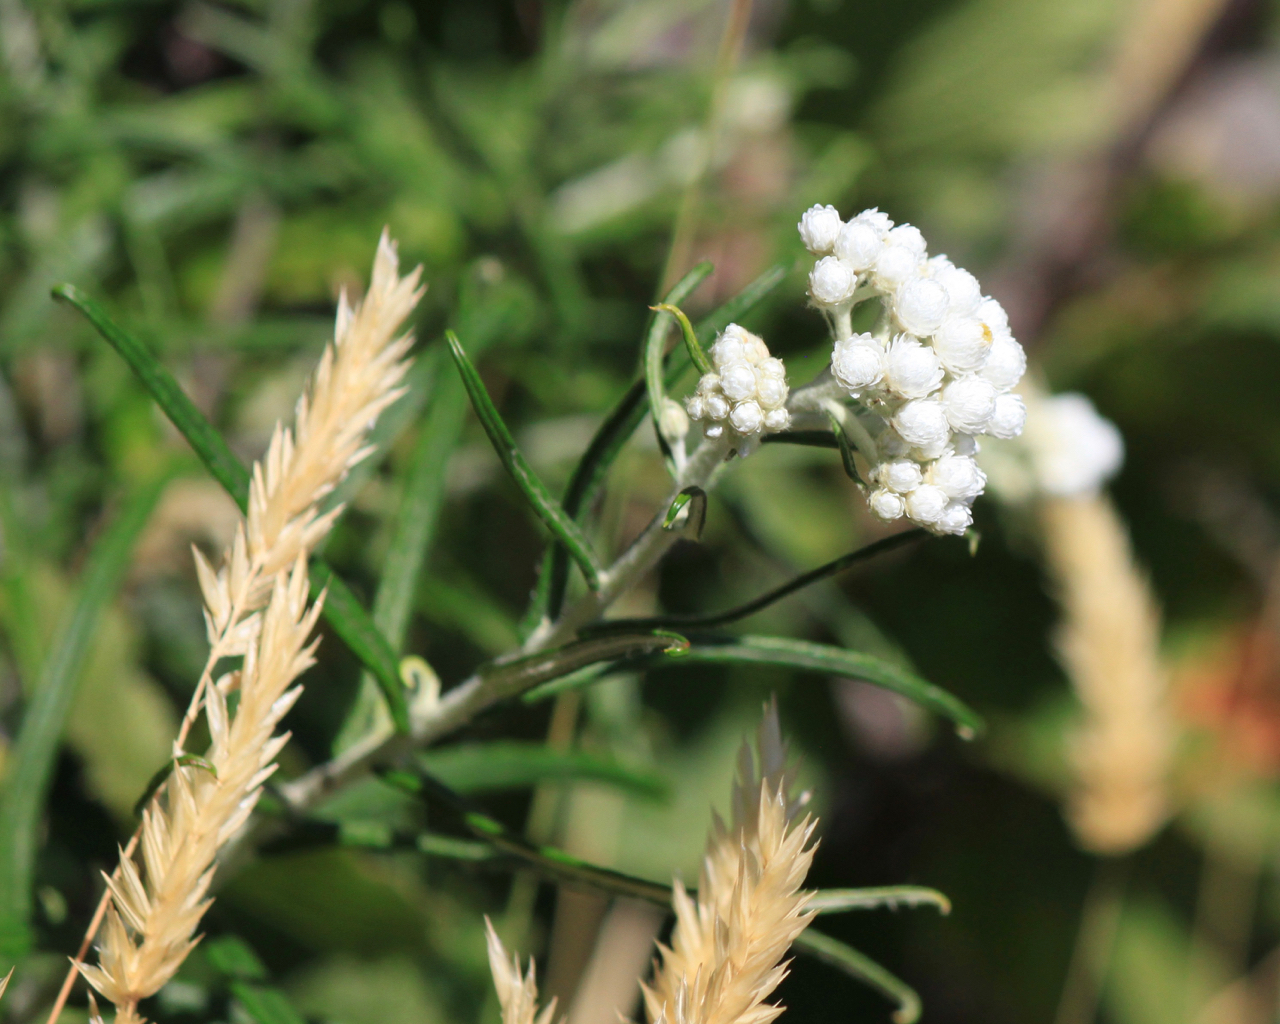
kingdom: Plantae
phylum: Tracheophyta
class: Magnoliopsida
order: Asterales
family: Asteraceae
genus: Anaphalis
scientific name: Anaphalis margaritacea
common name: Pearly everlasting
